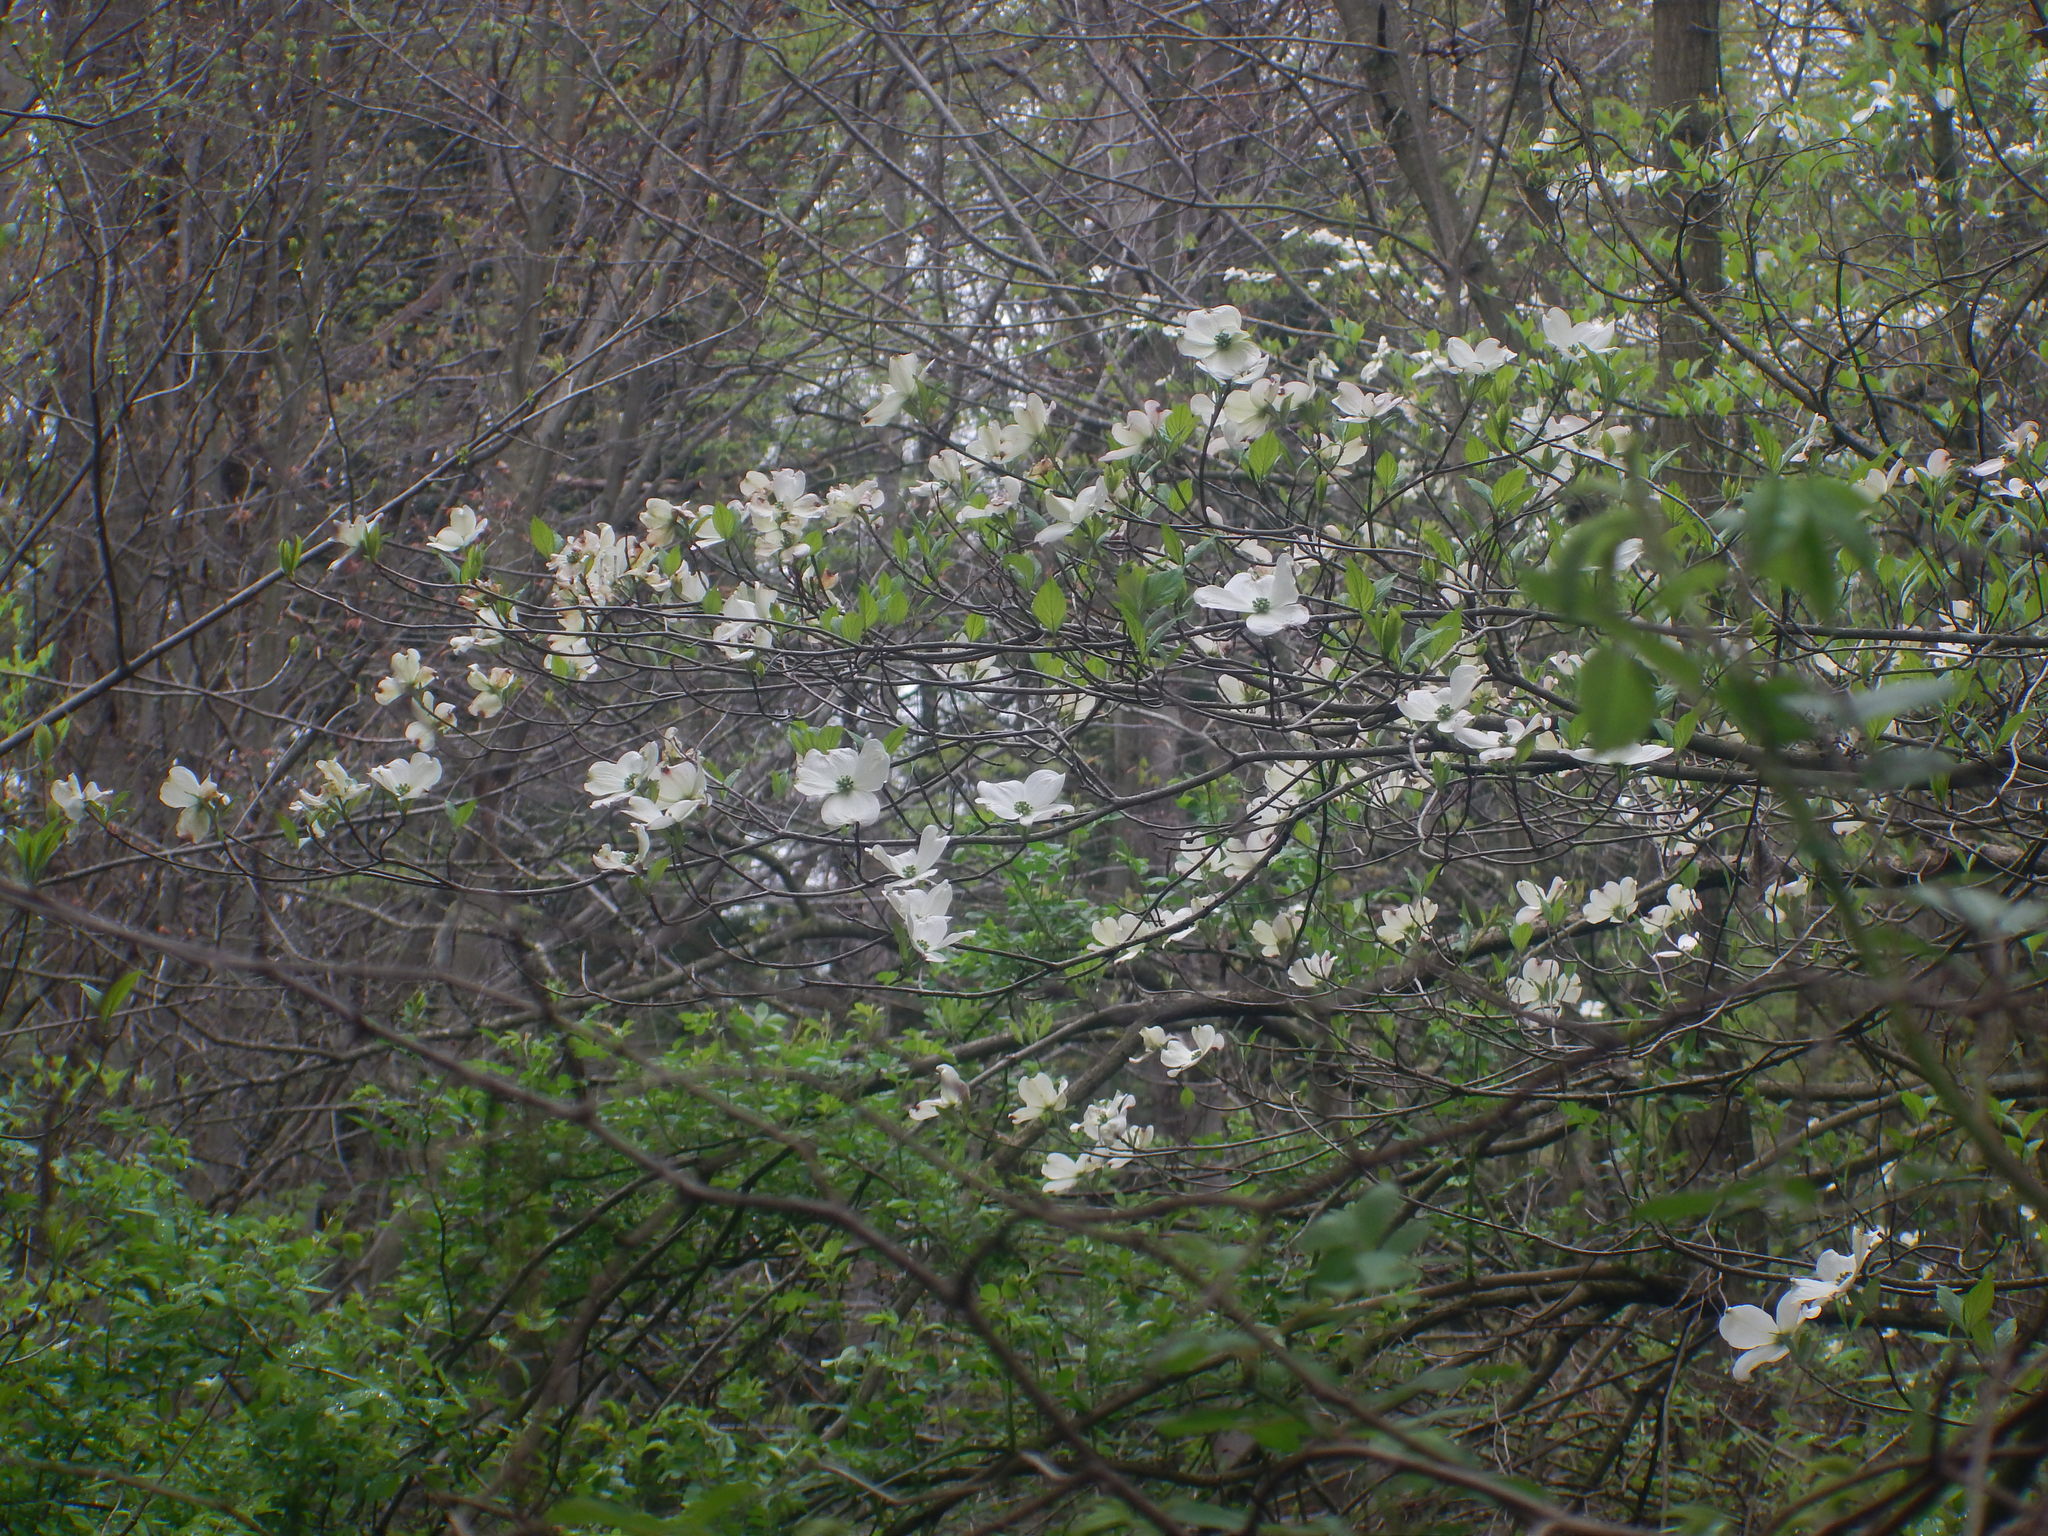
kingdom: Plantae
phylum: Tracheophyta
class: Magnoliopsida
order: Cornales
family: Cornaceae
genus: Cornus
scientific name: Cornus florida
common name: Flowering dogwood
